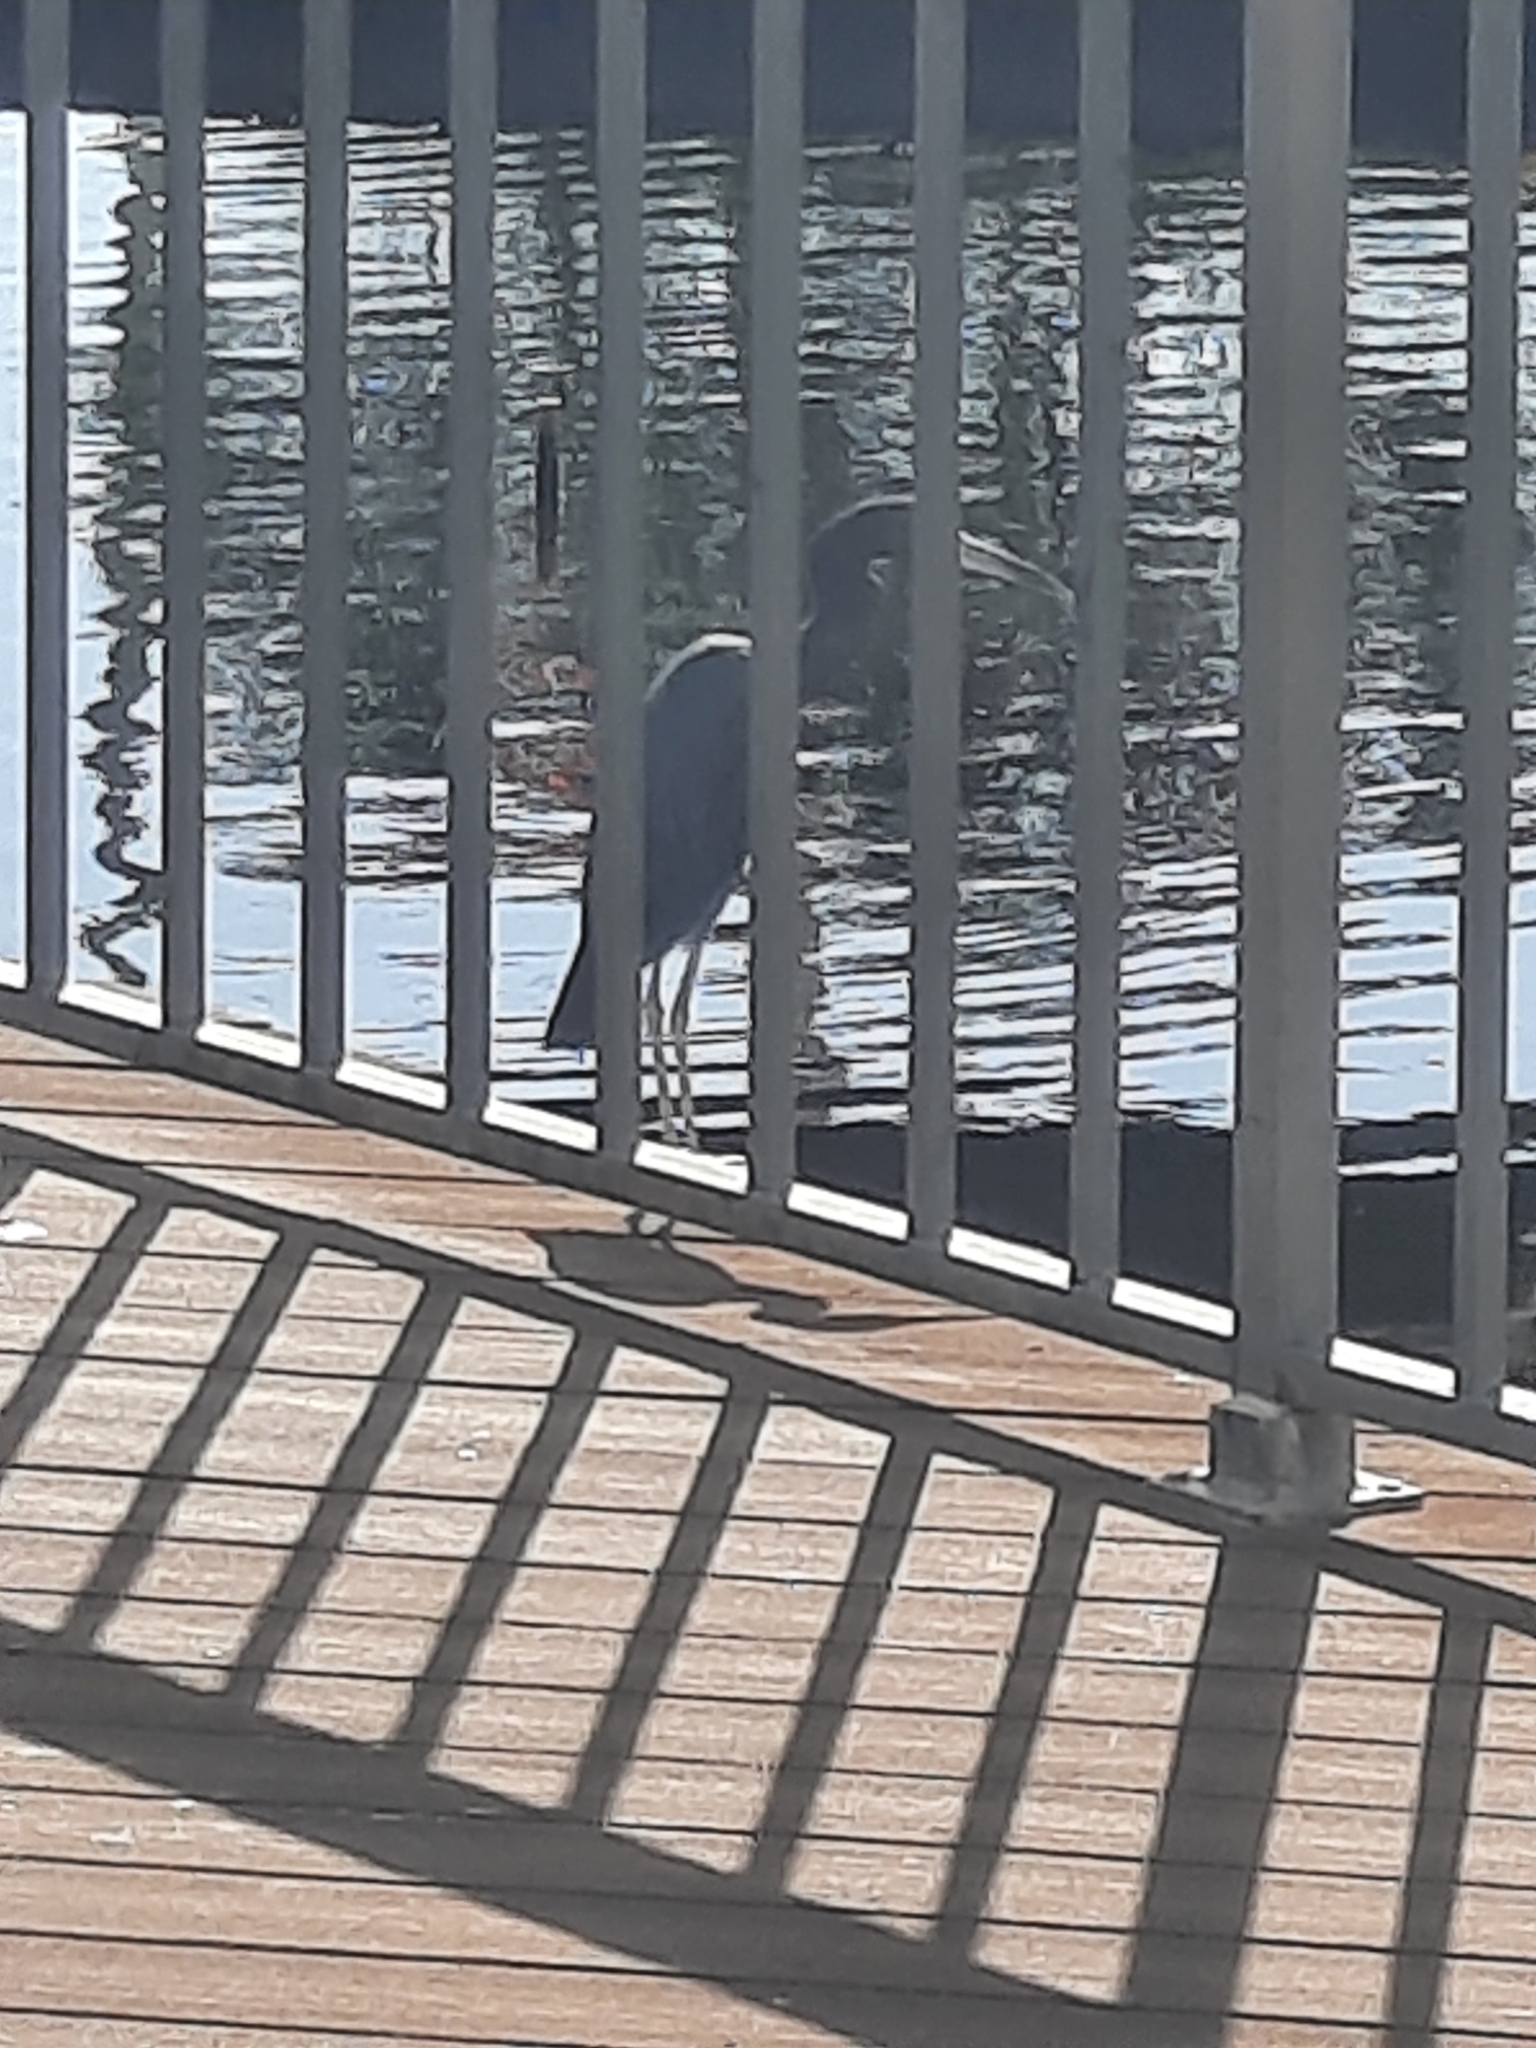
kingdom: Animalia
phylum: Chordata
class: Aves
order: Pelecaniformes
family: Ardeidae
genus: Egretta
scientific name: Egretta caerulea
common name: Little blue heron
